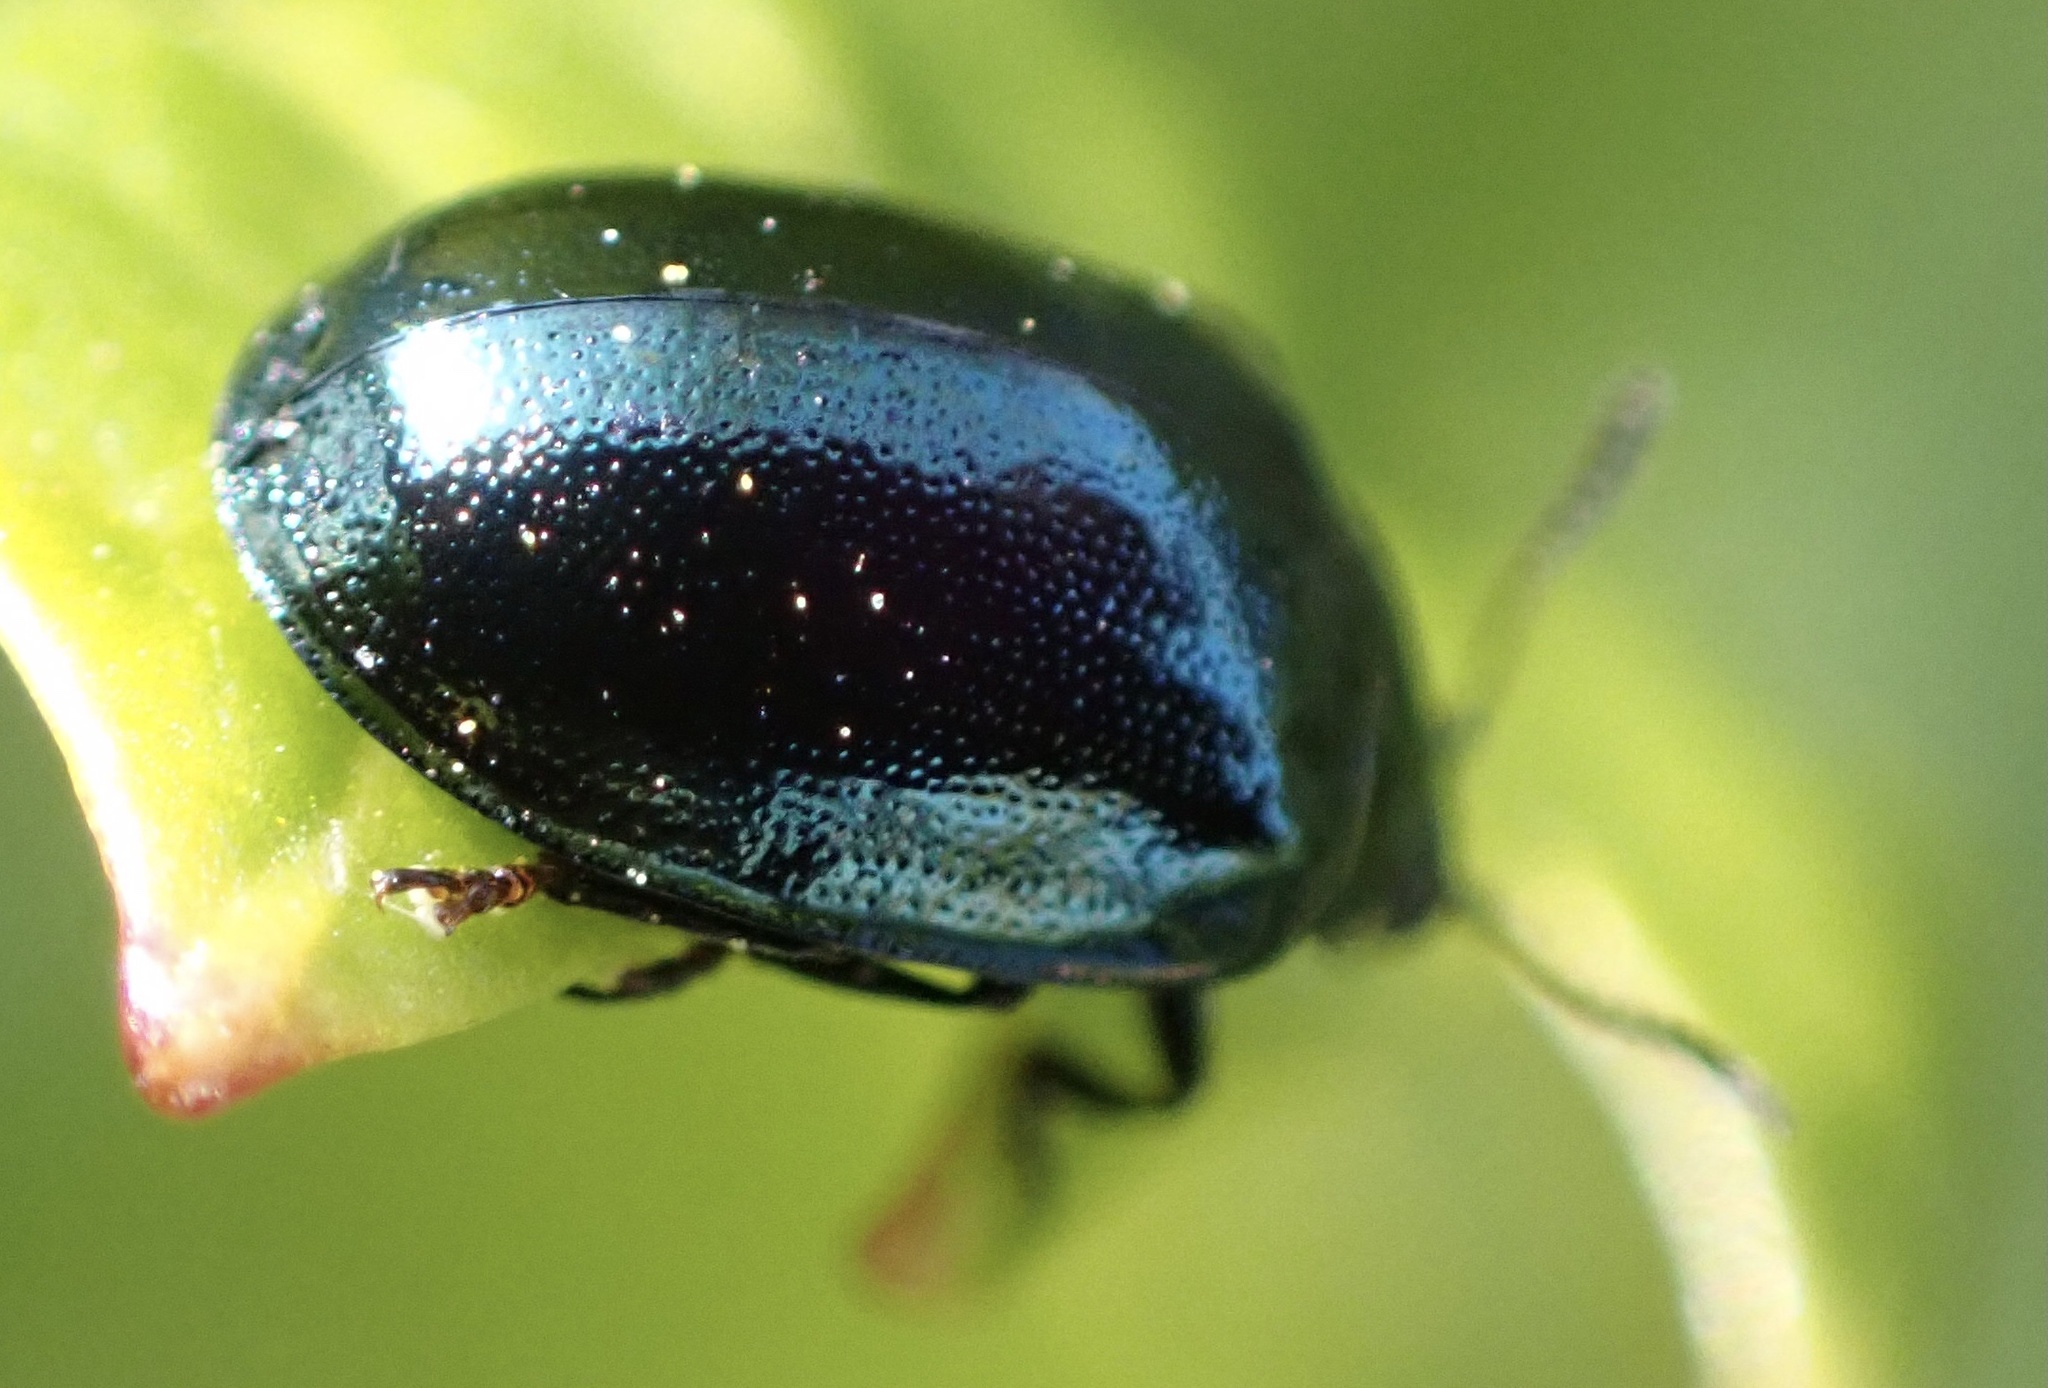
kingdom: Animalia
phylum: Arthropoda
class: Insecta
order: Coleoptera
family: Chrysomelidae
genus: Plagiodera
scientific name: Plagiodera versicolora
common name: Imported willow leaf beetle
